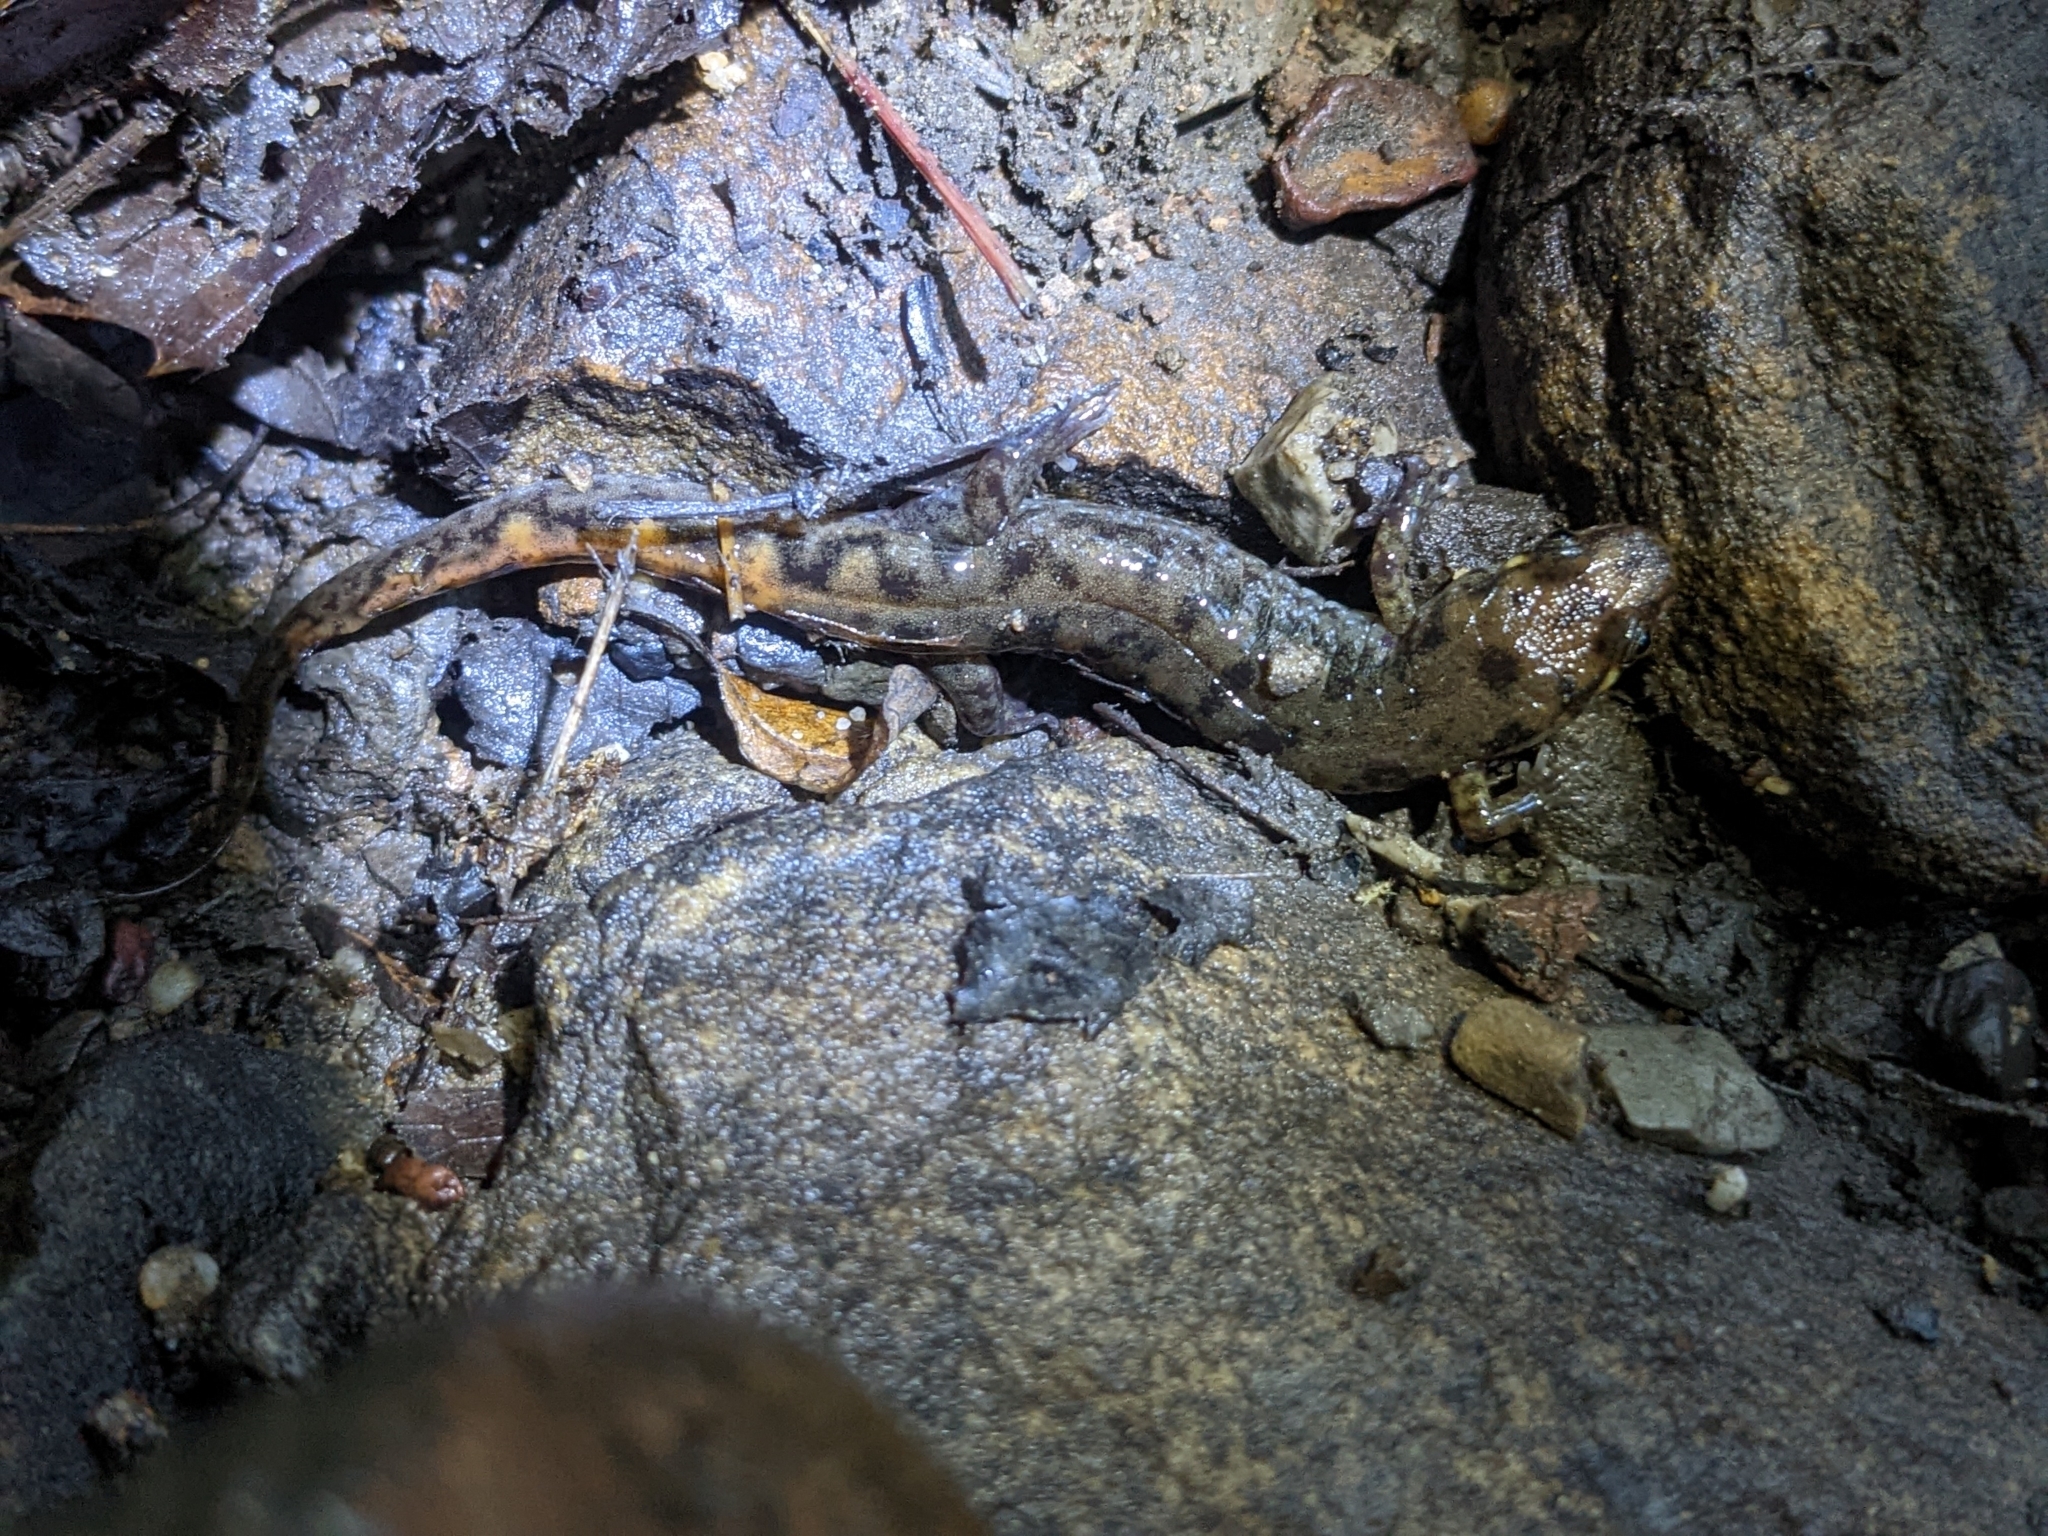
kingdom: Animalia
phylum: Chordata
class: Amphibia
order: Caudata
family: Plethodontidae
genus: Desmognathus
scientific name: Desmognathus monticola
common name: Seal salamander
